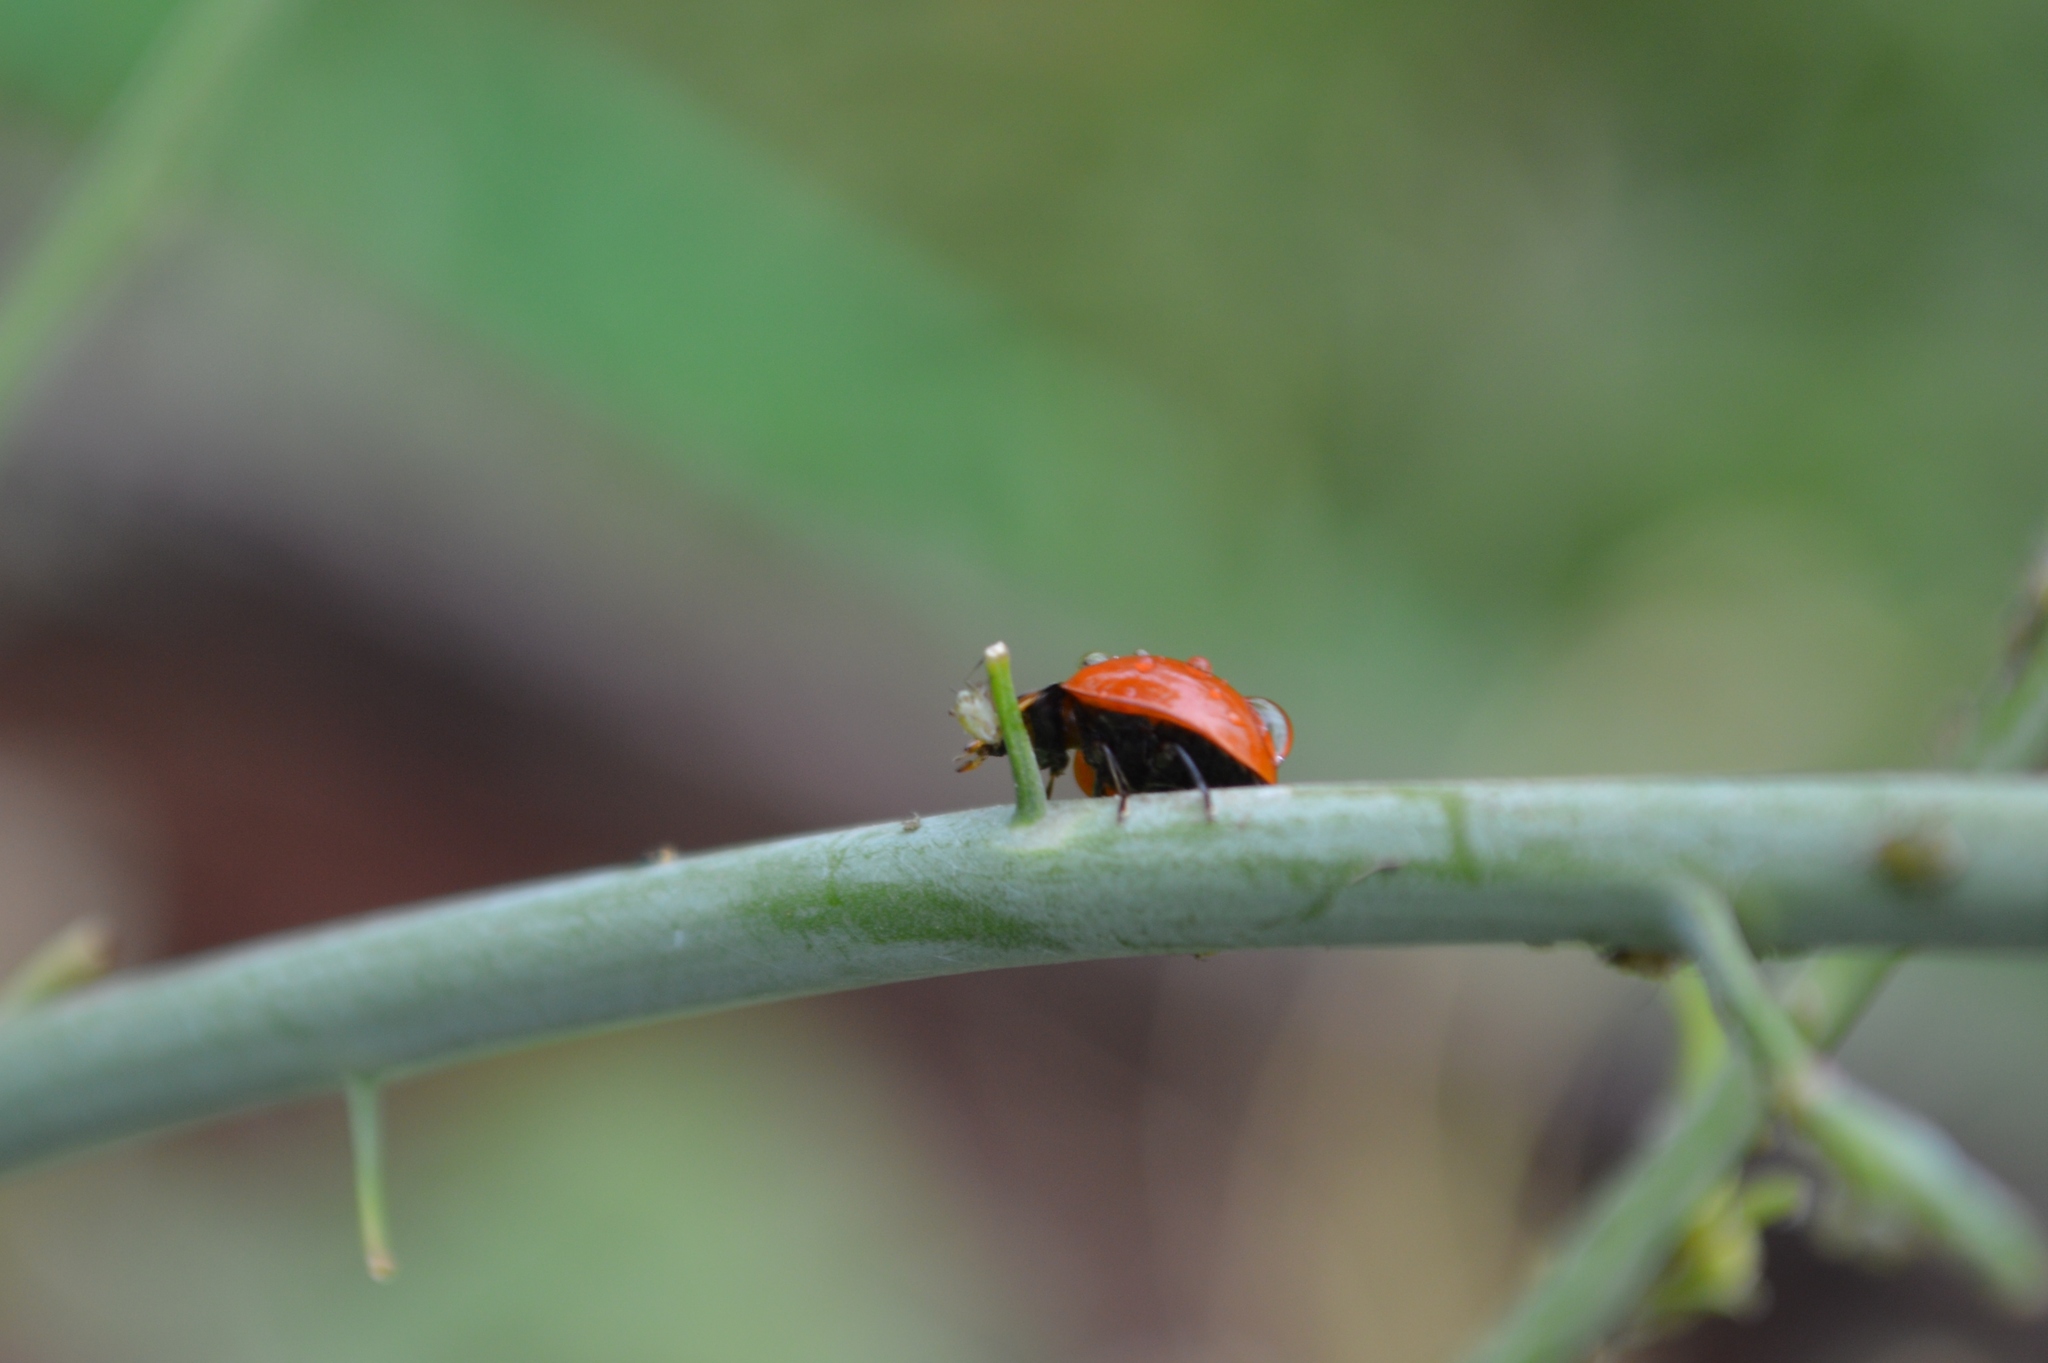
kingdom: Animalia
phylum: Arthropoda
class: Insecta
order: Coleoptera
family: Coccinellidae
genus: Cycloneda
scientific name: Cycloneda sanguinea
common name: Ladybird beetle
